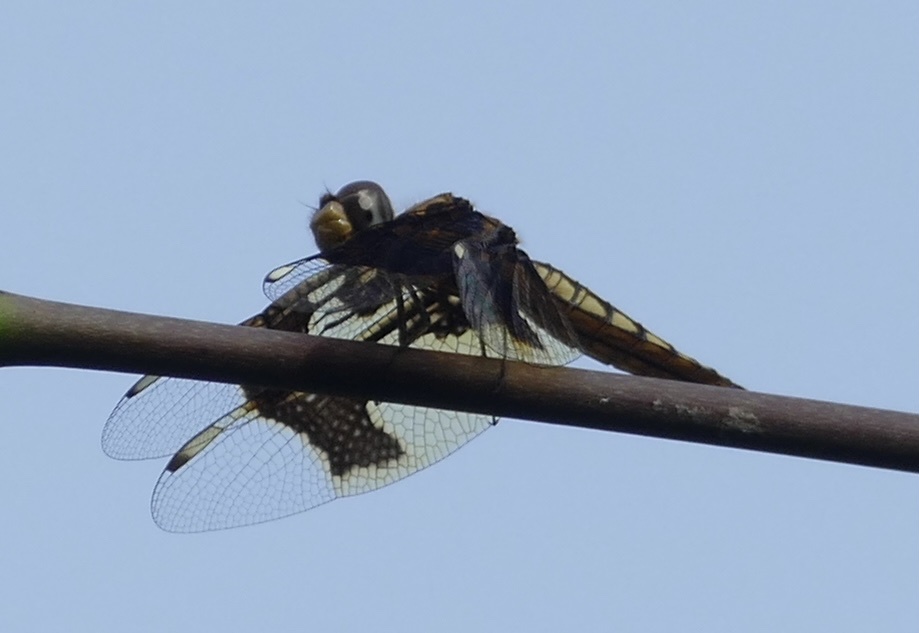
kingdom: Animalia
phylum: Arthropoda
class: Insecta
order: Odonata
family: Libellulidae
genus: Palpopleura
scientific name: Palpopleura lucia
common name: Lucia widow
